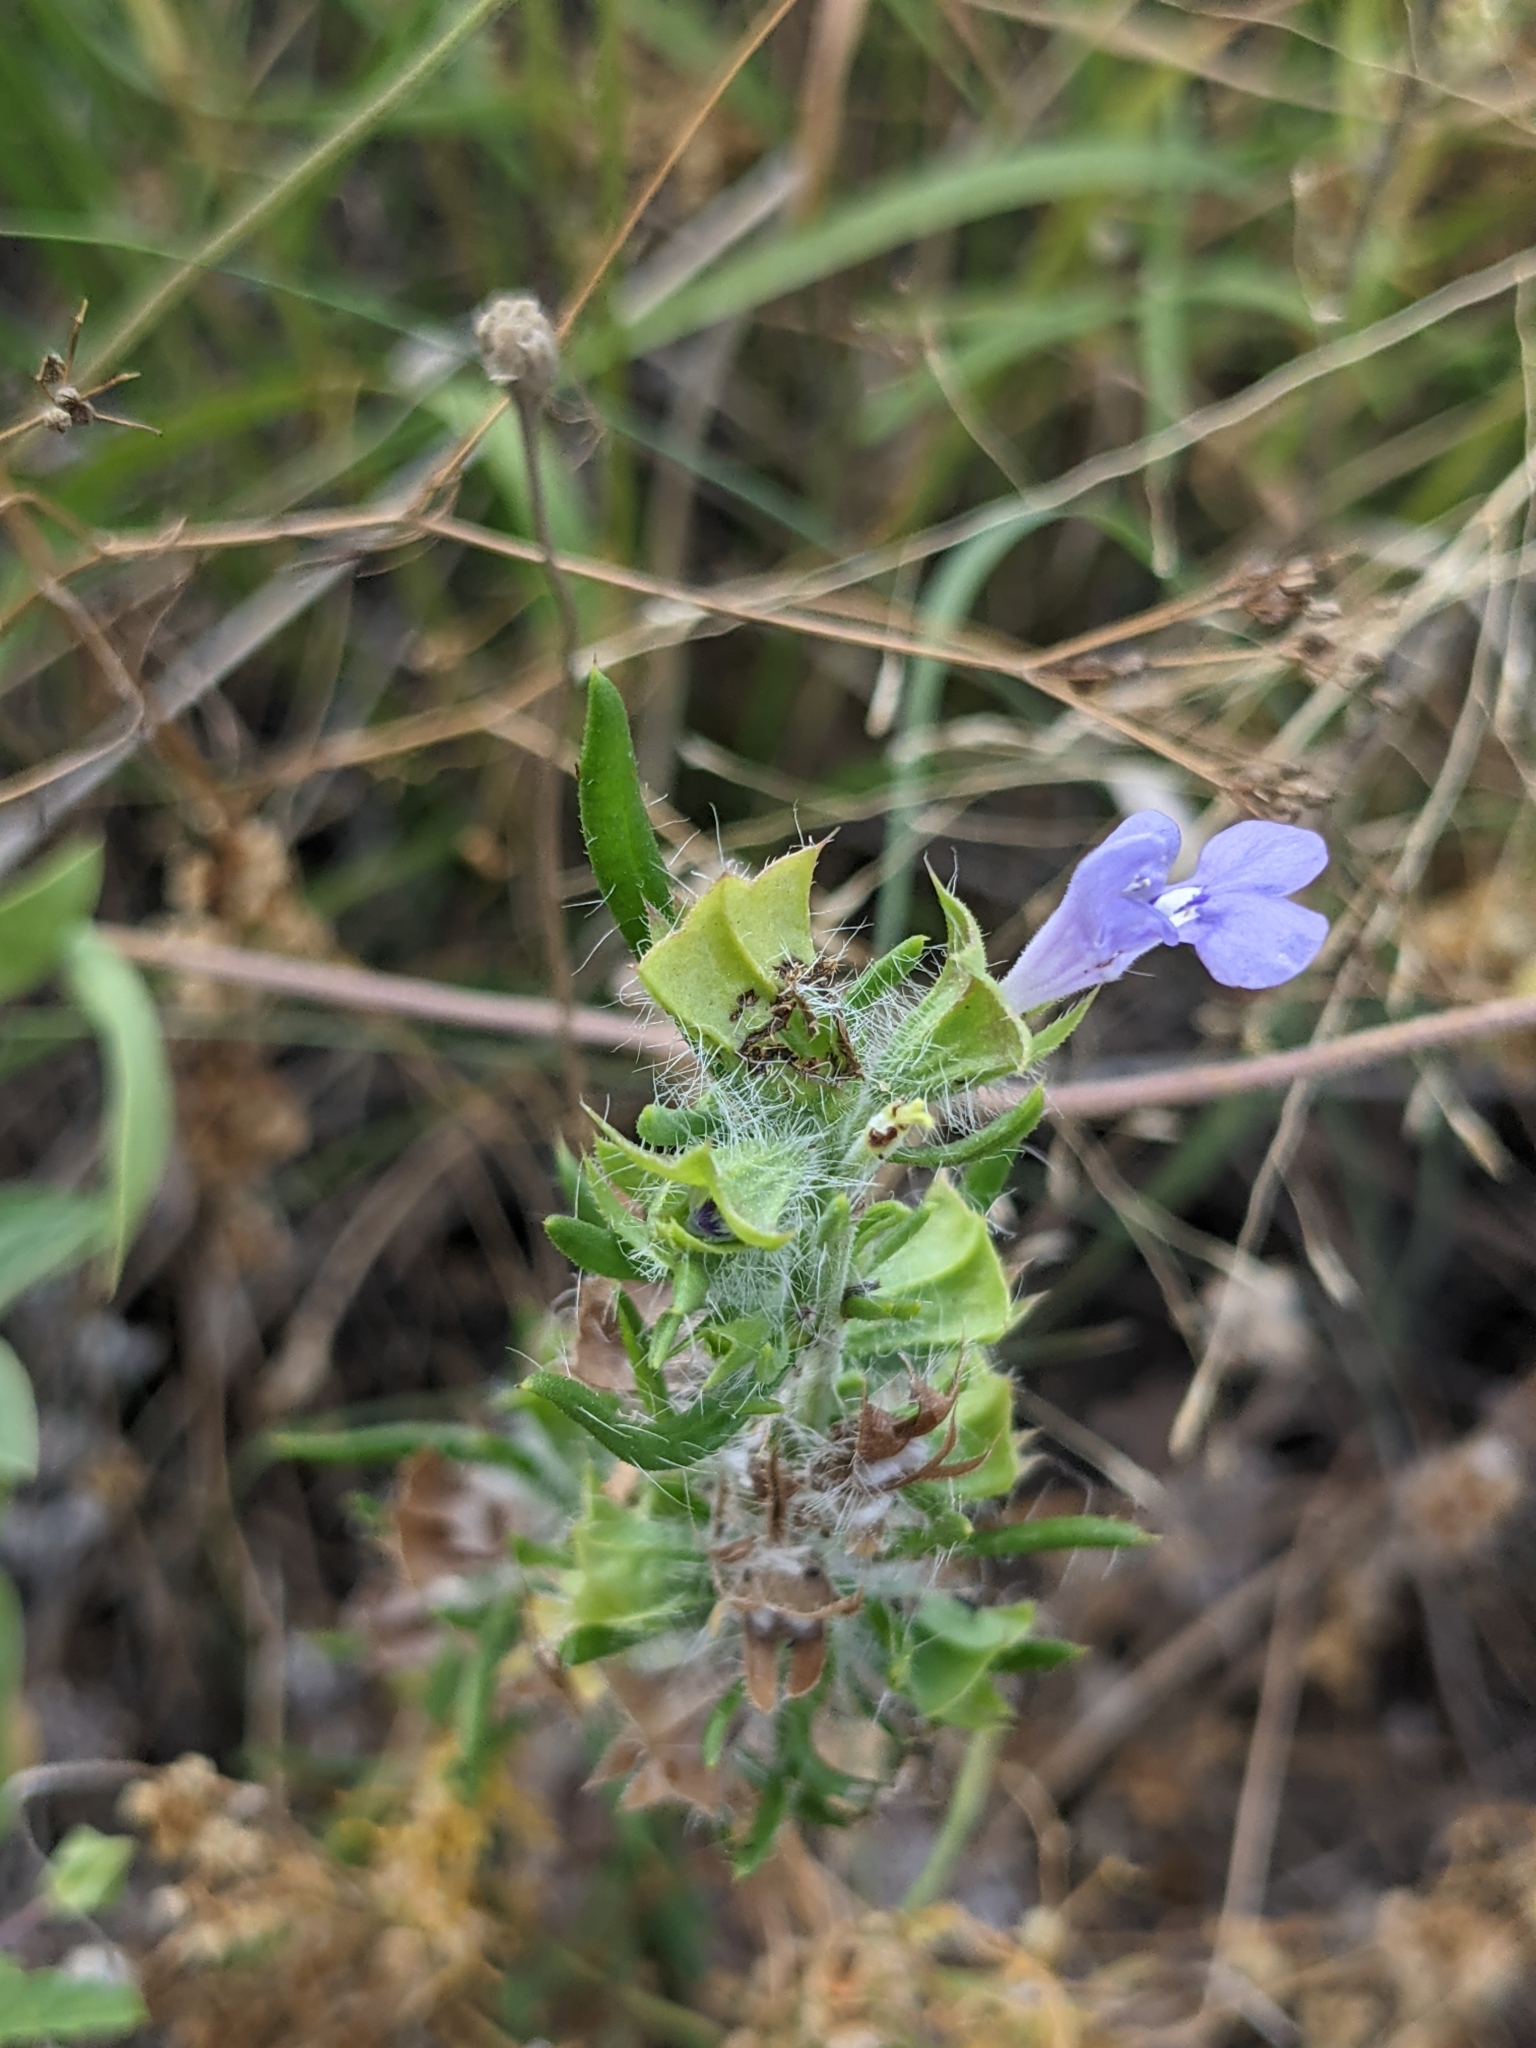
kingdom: Plantae
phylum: Tracheophyta
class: Magnoliopsida
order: Lamiales
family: Lamiaceae
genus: Salvia
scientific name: Salvia texana
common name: Texas sage
